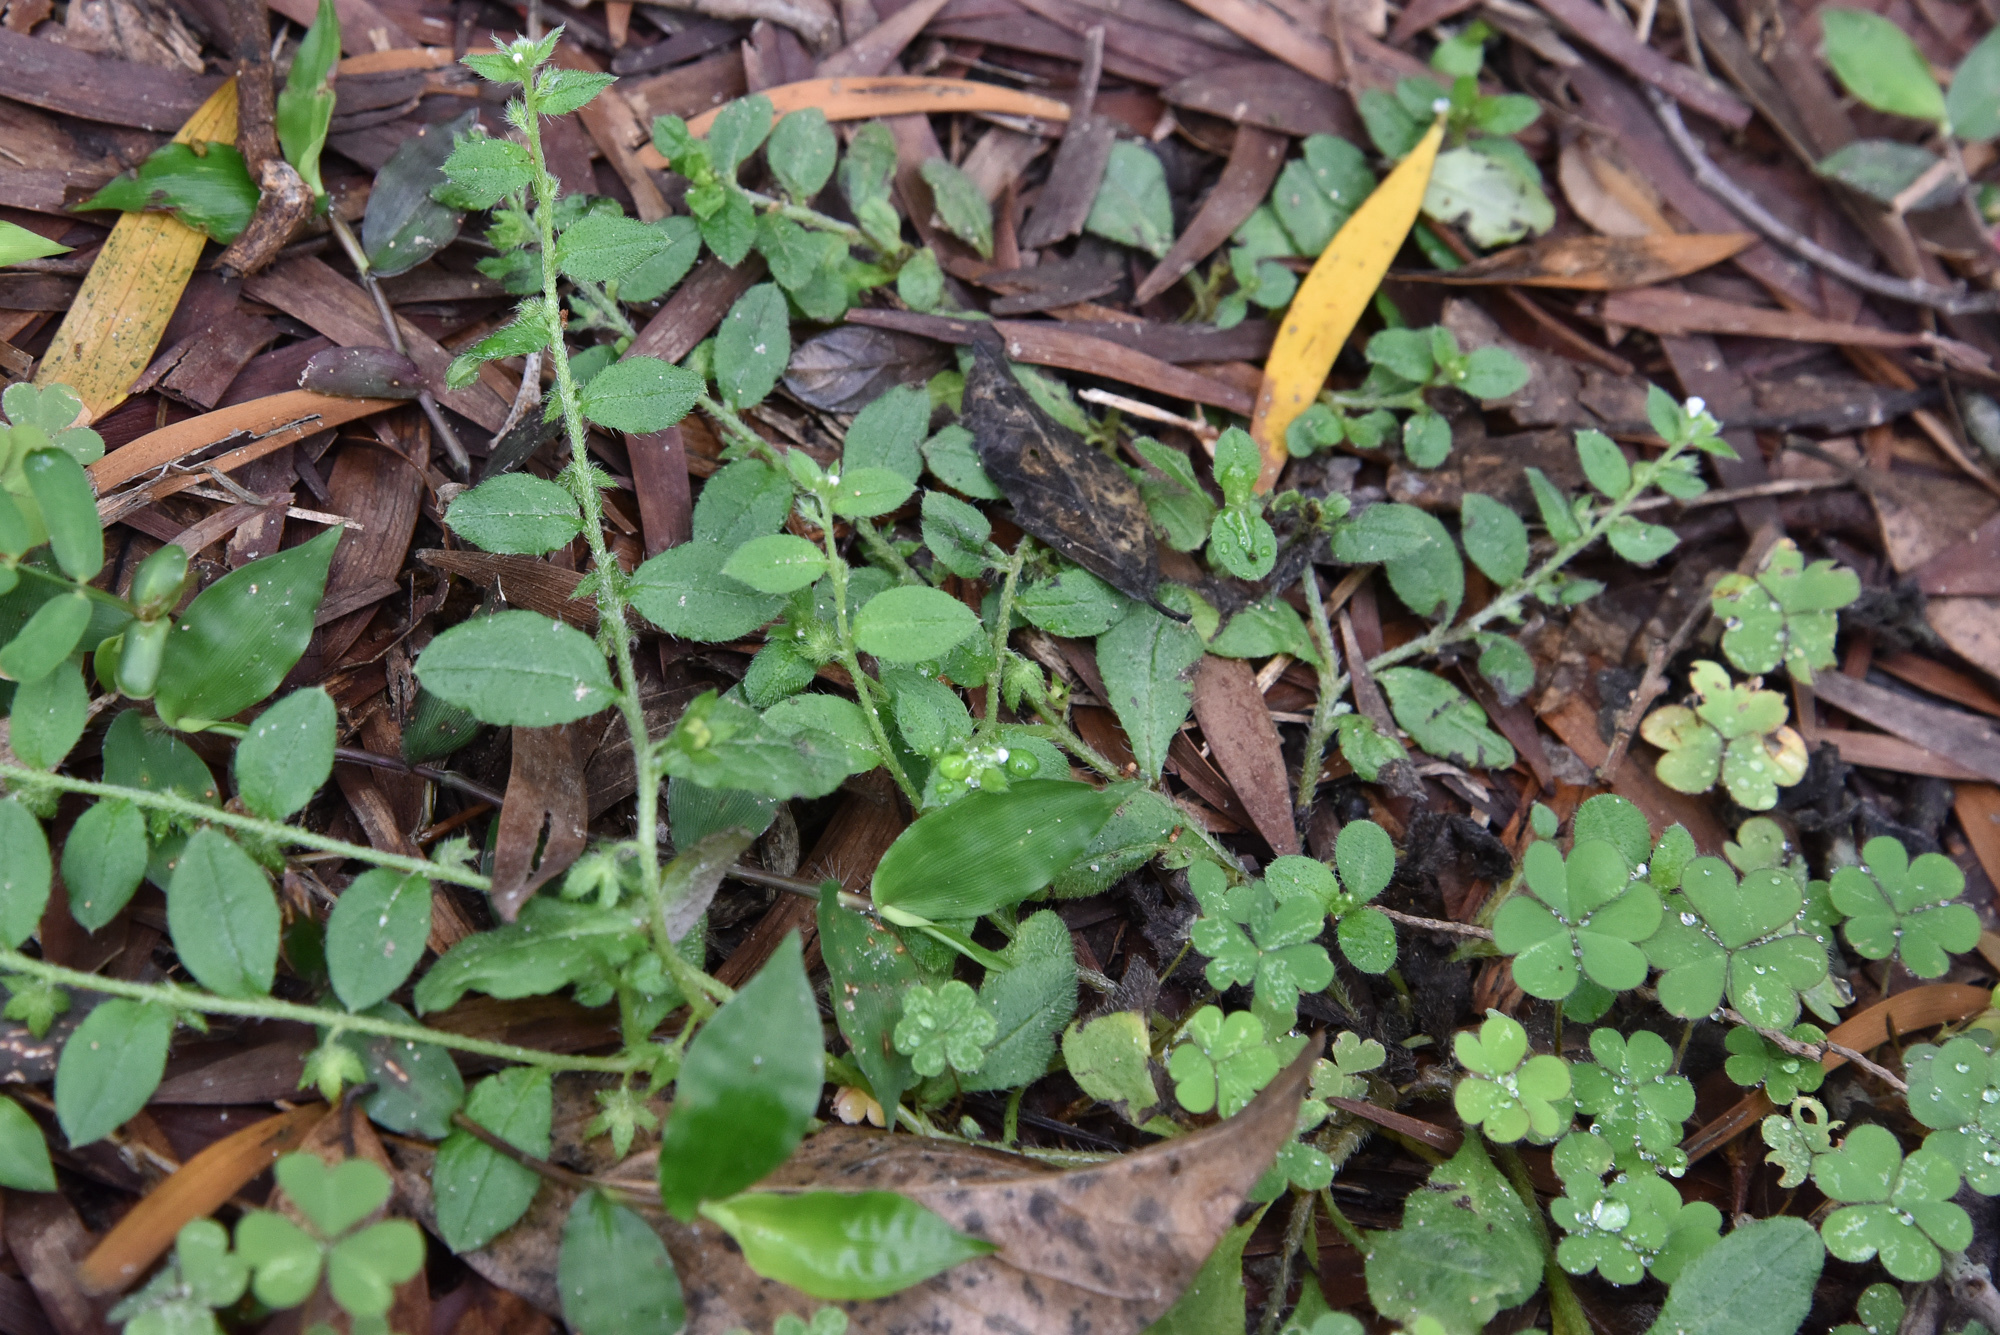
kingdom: Plantae
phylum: Tracheophyta
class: Magnoliopsida
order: Boraginales
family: Boraginaceae
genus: Bothriospermum
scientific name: Bothriospermum zeylanicum
